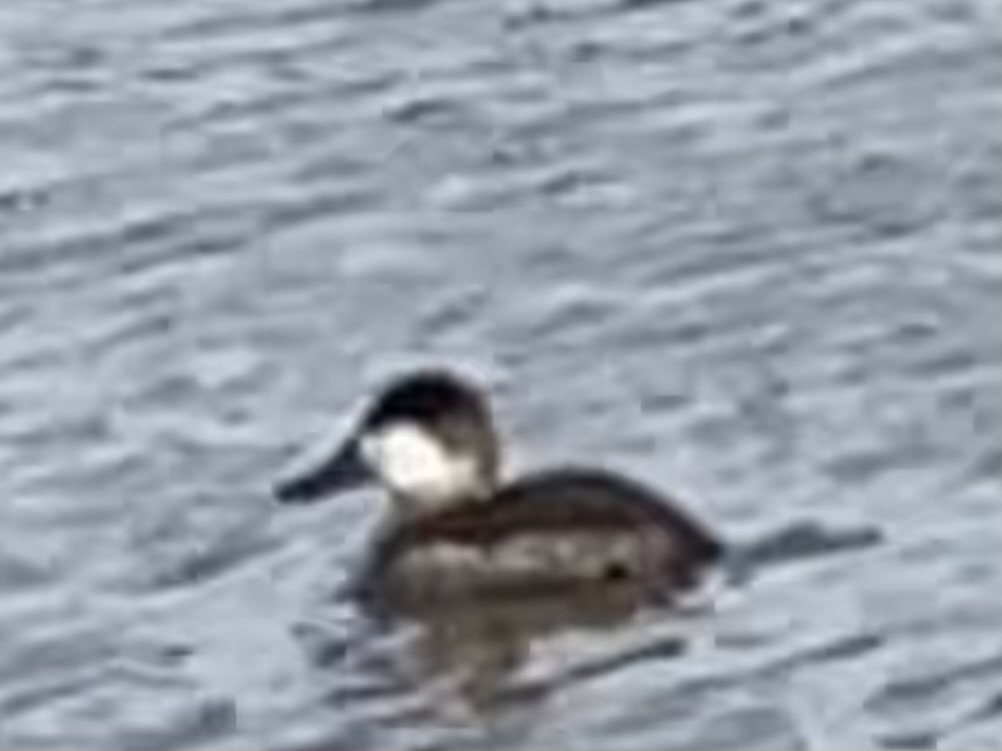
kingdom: Animalia
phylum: Chordata
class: Aves
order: Anseriformes
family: Anatidae
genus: Oxyura
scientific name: Oxyura jamaicensis
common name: Ruddy duck
